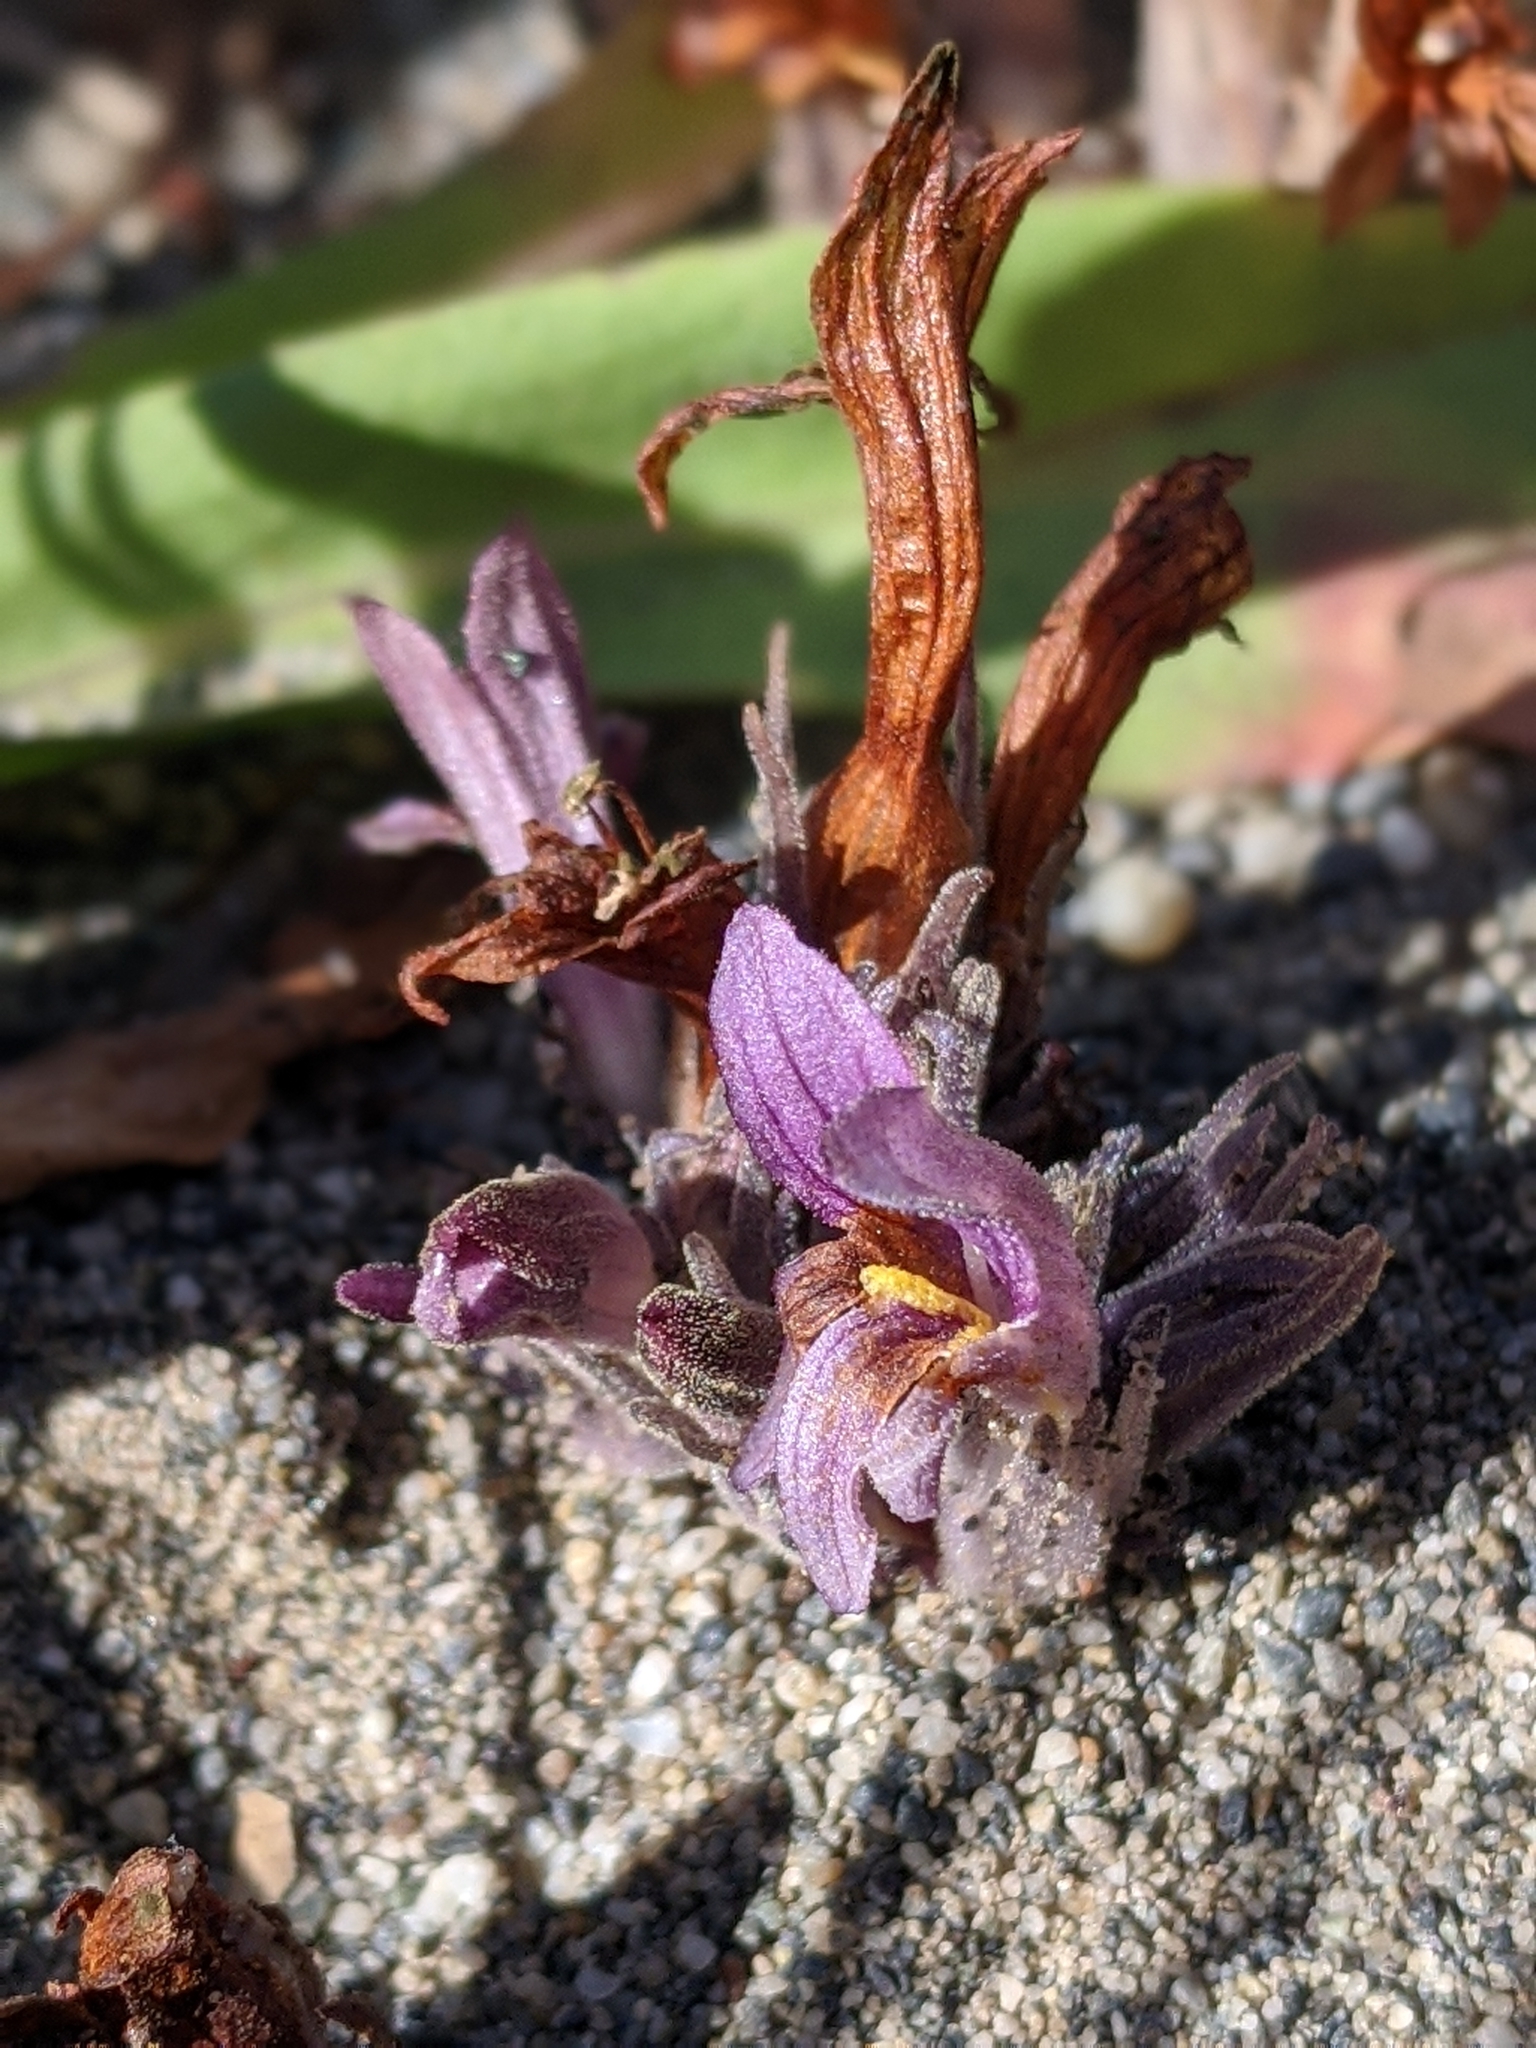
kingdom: Plantae
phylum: Tracheophyta
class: Magnoliopsida
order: Lamiales
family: Orobanchaceae
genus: Aphyllon
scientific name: Aphyllon californicum
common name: California broomrape
